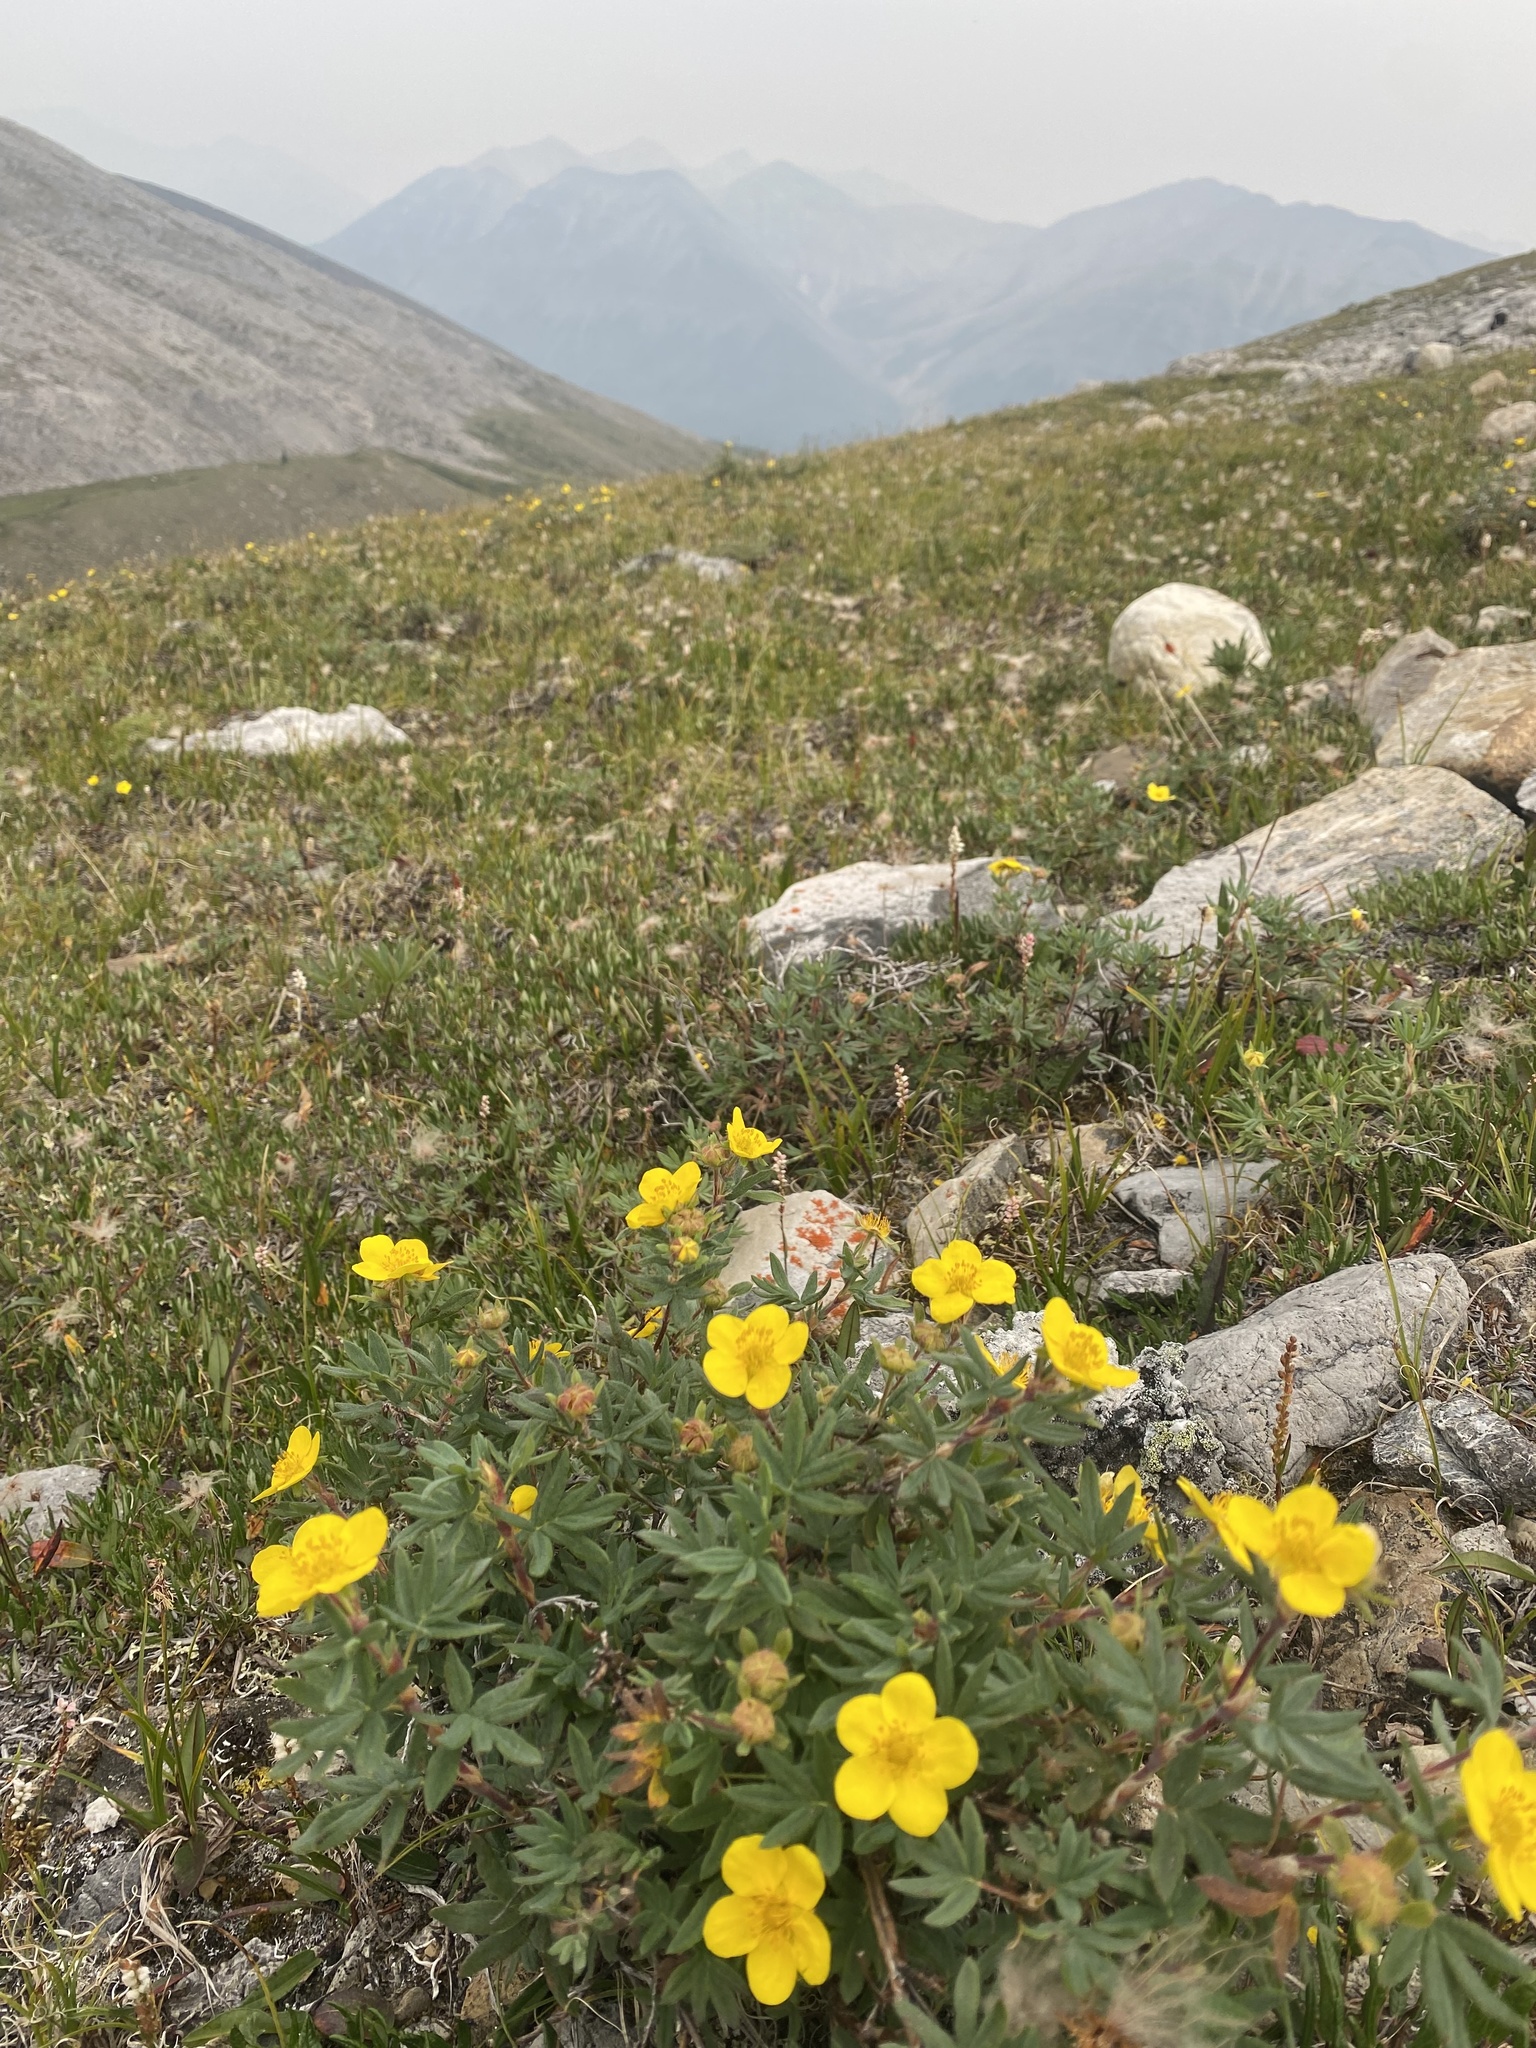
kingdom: Plantae
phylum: Tracheophyta
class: Magnoliopsida
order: Rosales
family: Rosaceae
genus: Dasiphora
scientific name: Dasiphora fruticosa
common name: Shrubby cinquefoil
